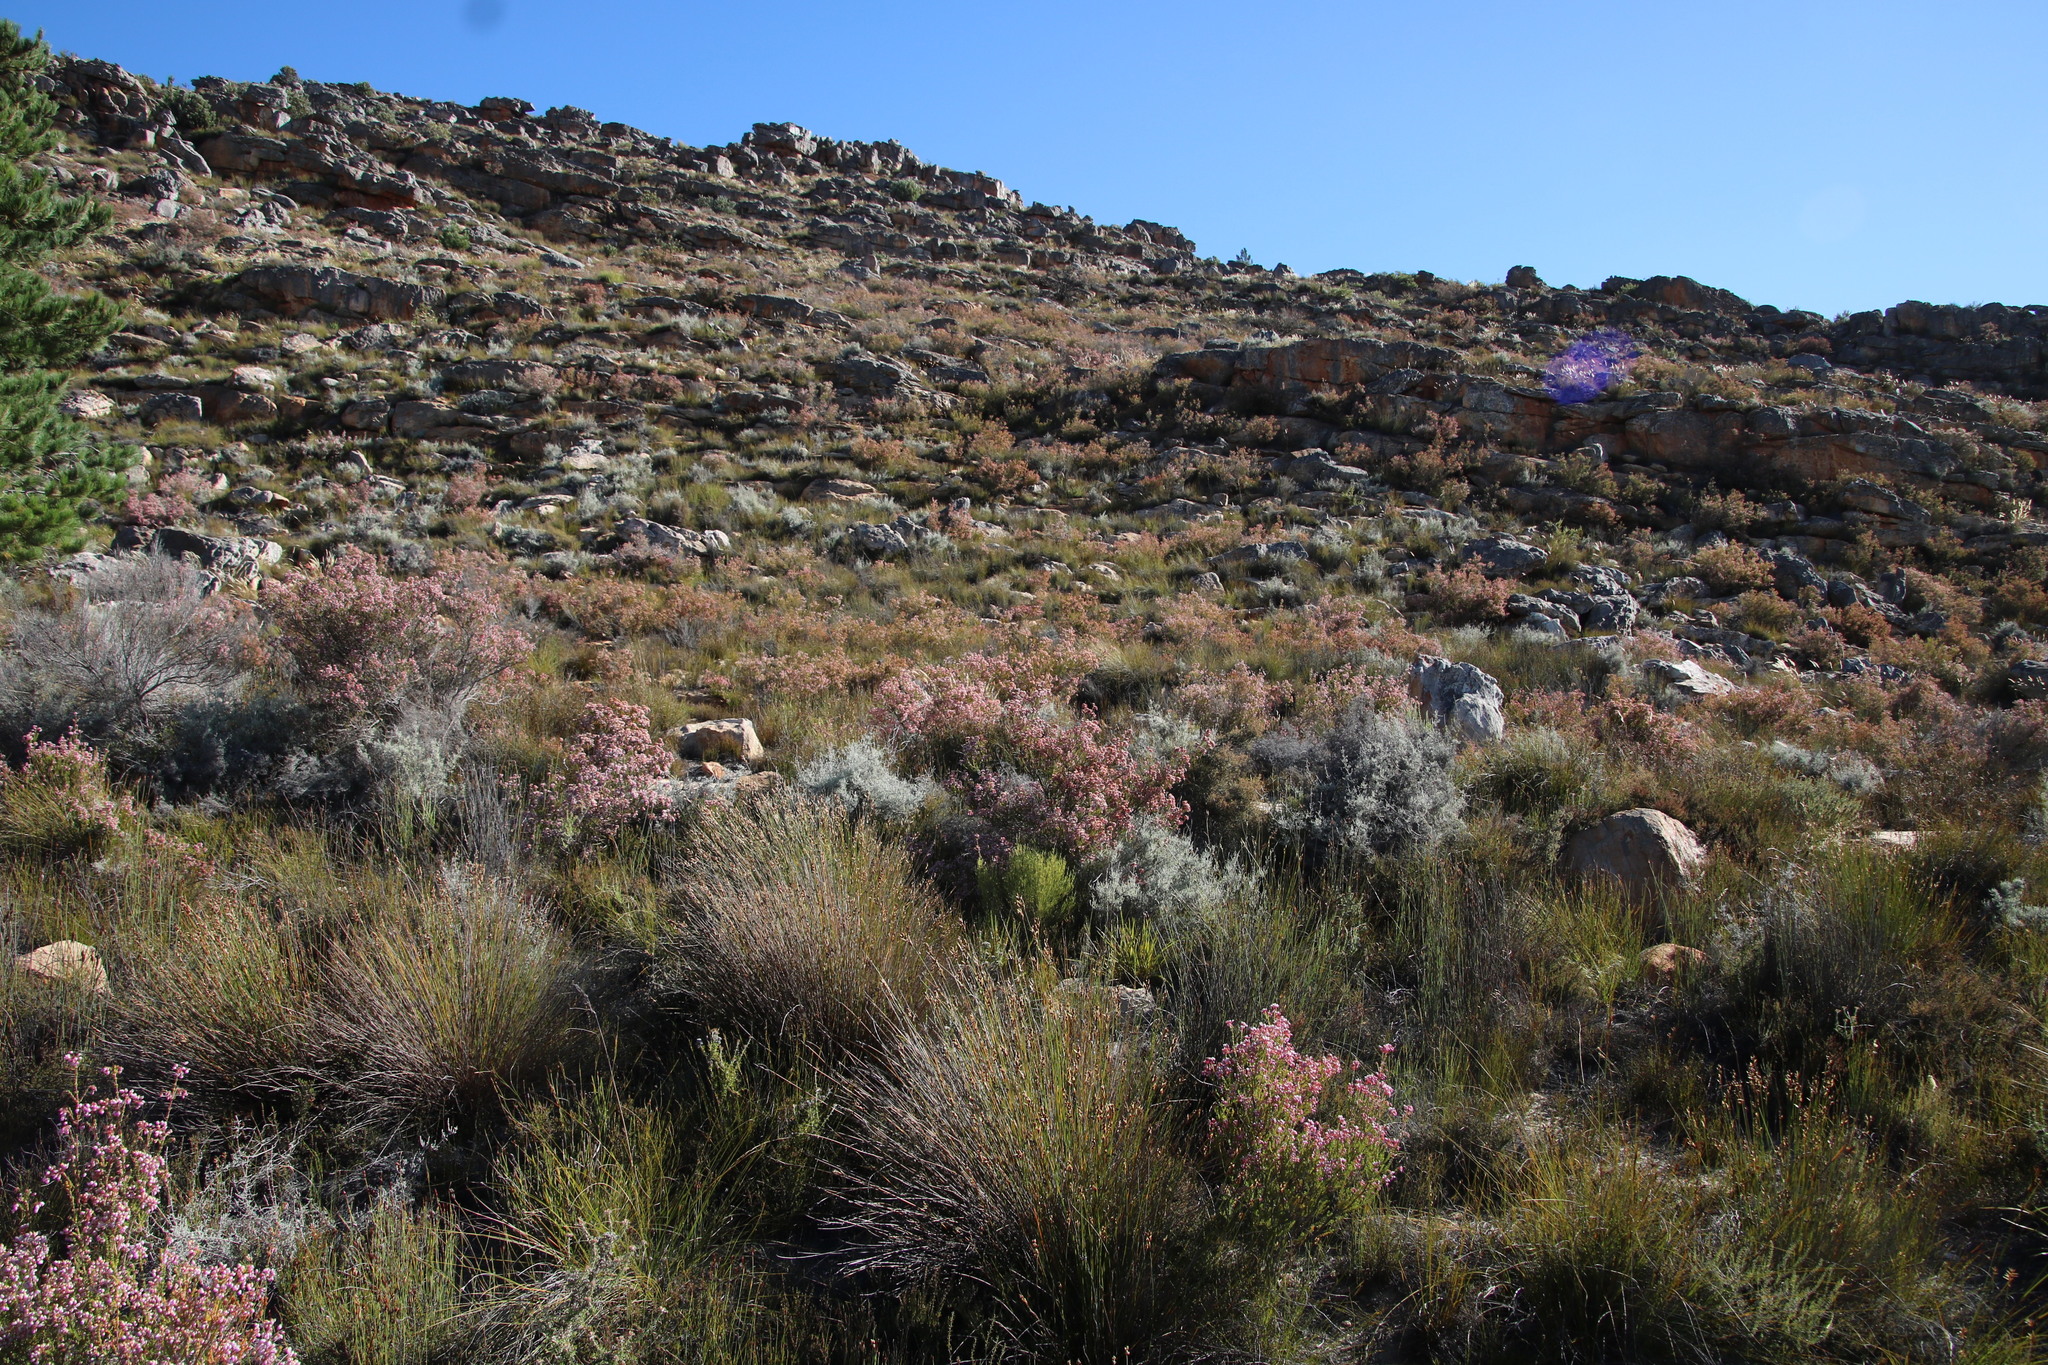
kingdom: Plantae
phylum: Tracheophyta
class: Magnoliopsida
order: Ericales
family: Ericaceae
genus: Erica
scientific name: Erica verecunda
